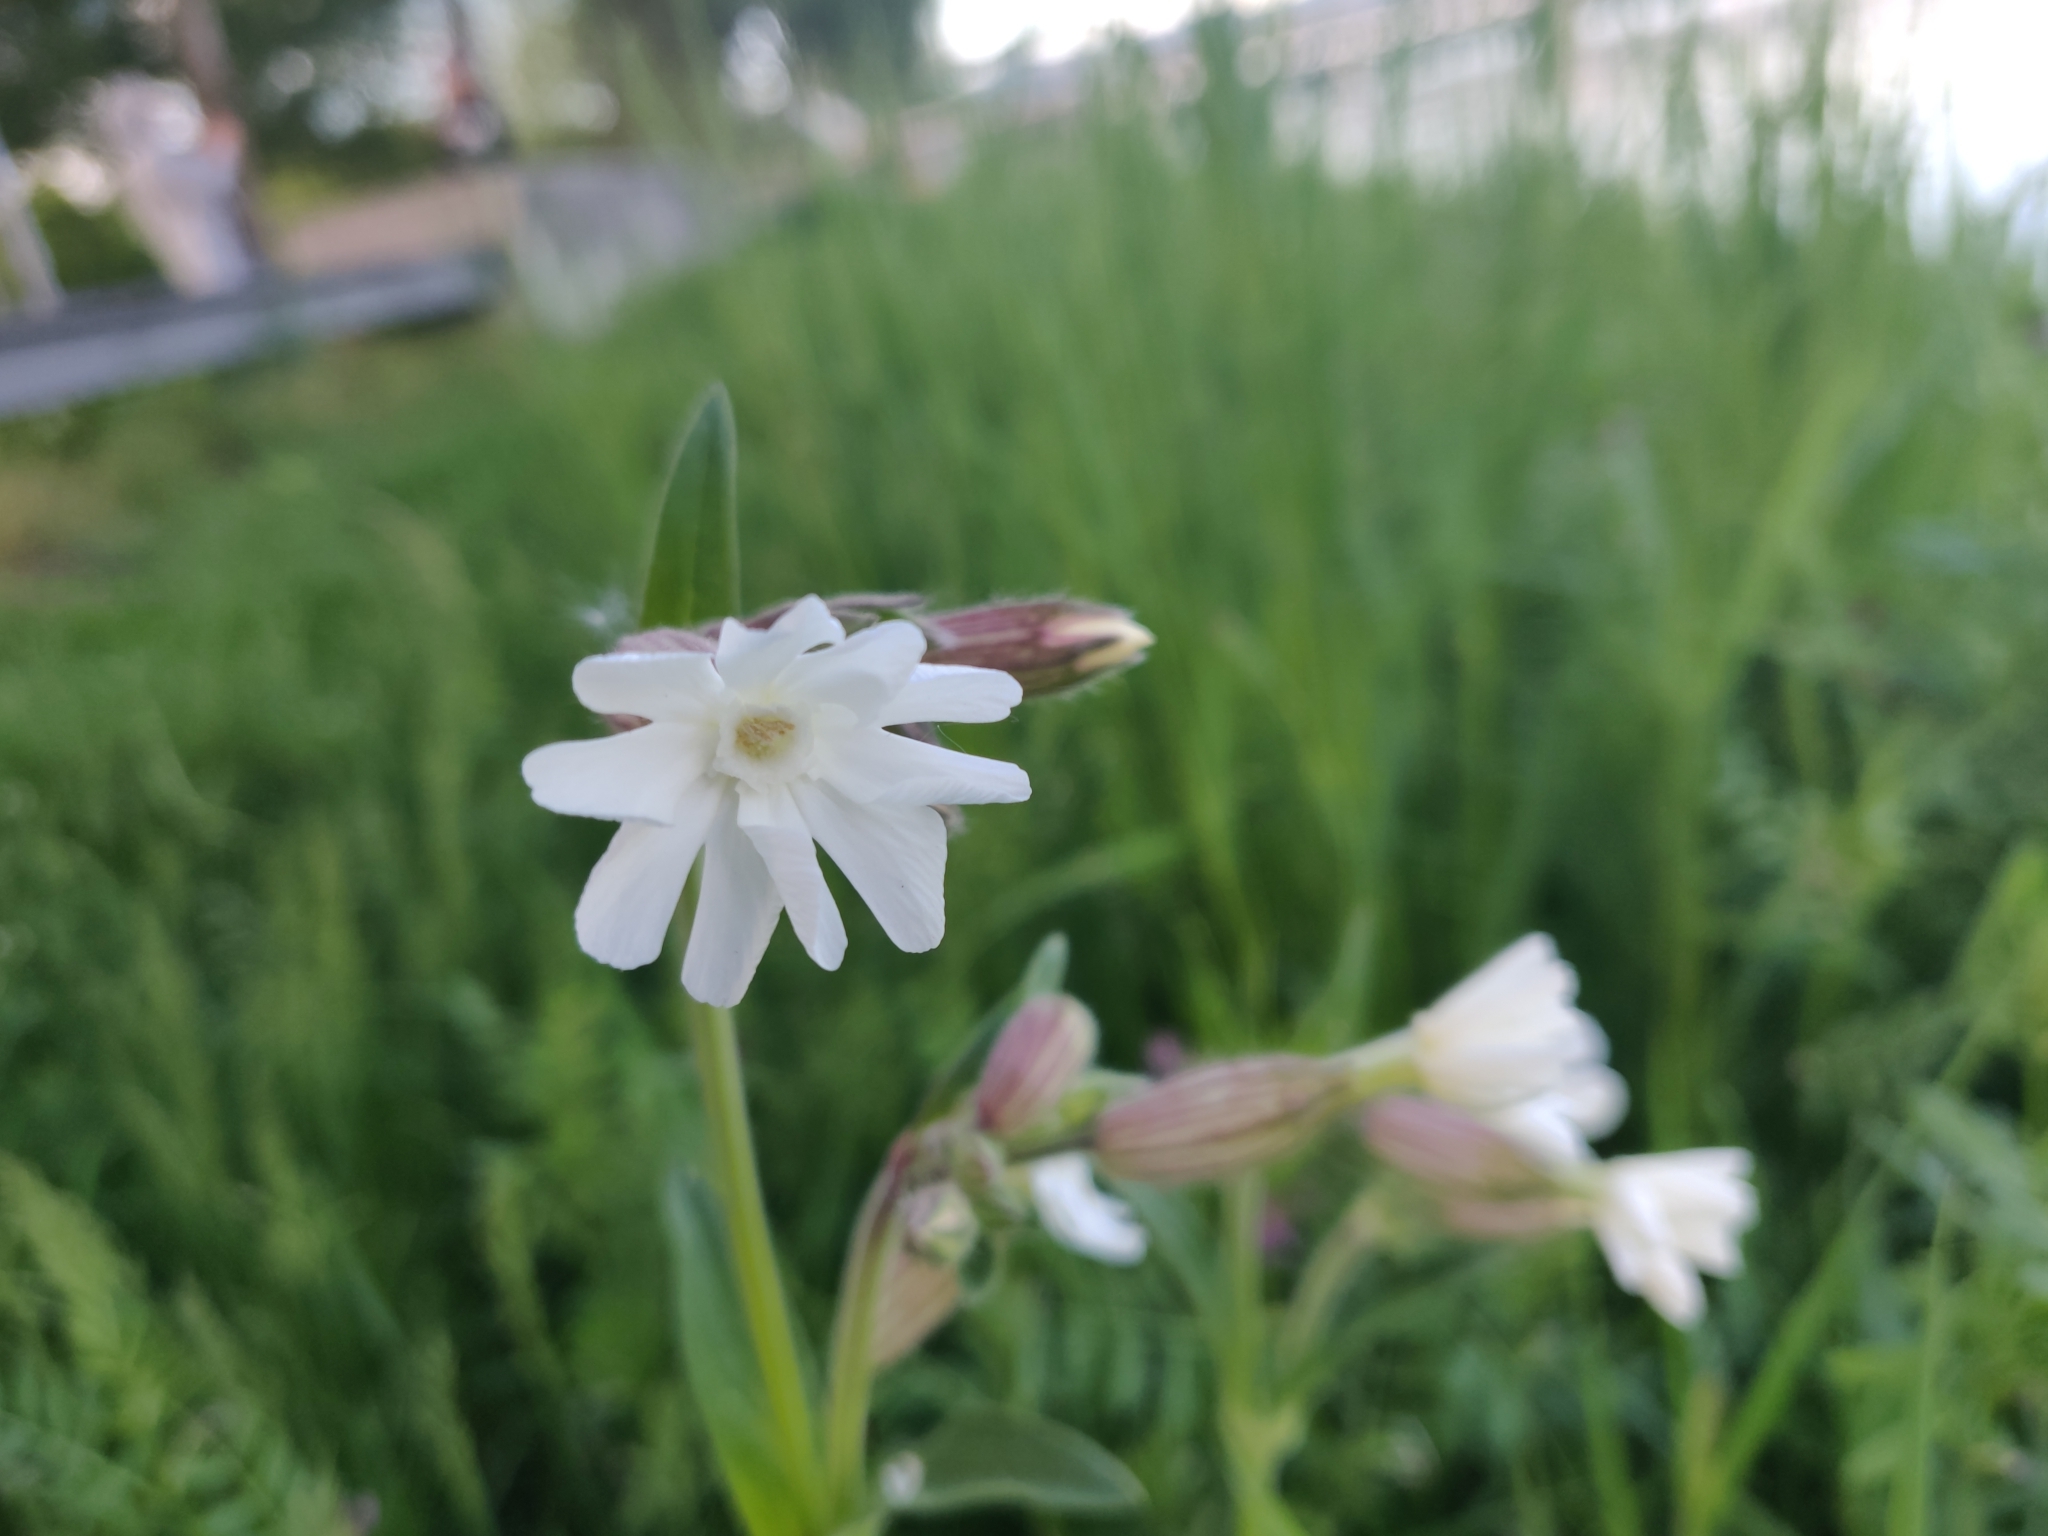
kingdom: Plantae
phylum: Tracheophyta
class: Magnoliopsida
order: Caryophyllales
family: Caryophyllaceae
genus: Silene
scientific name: Silene latifolia
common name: White campion
